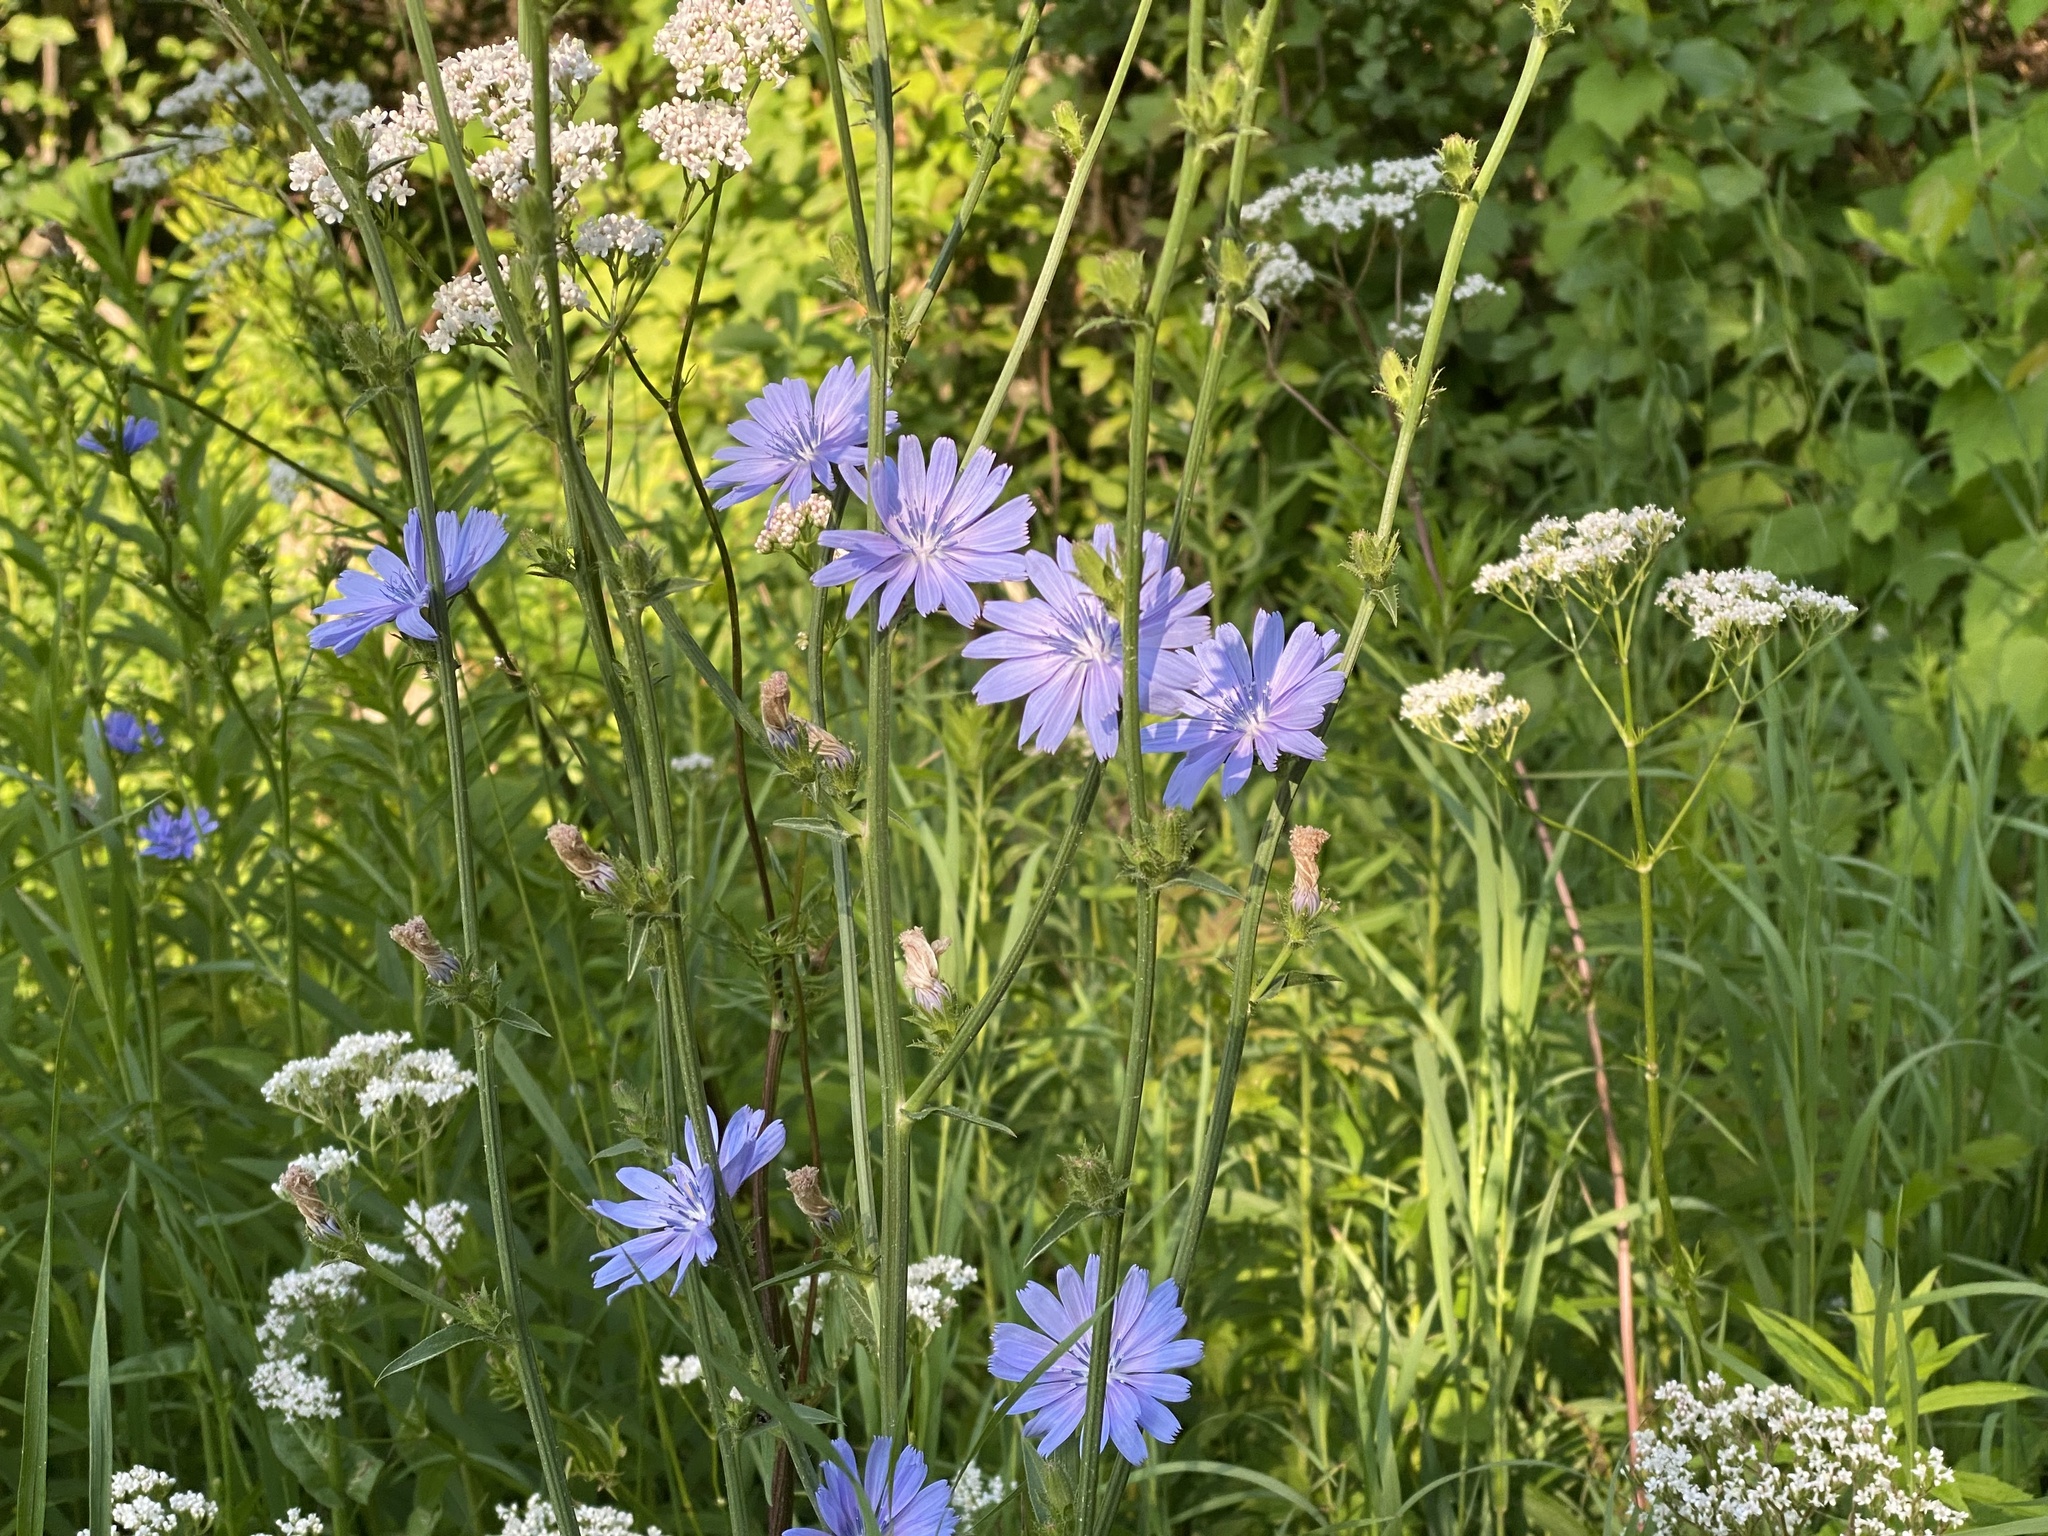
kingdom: Plantae
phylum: Tracheophyta
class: Magnoliopsida
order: Asterales
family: Asteraceae
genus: Cichorium
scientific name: Cichorium intybus
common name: Chicory
